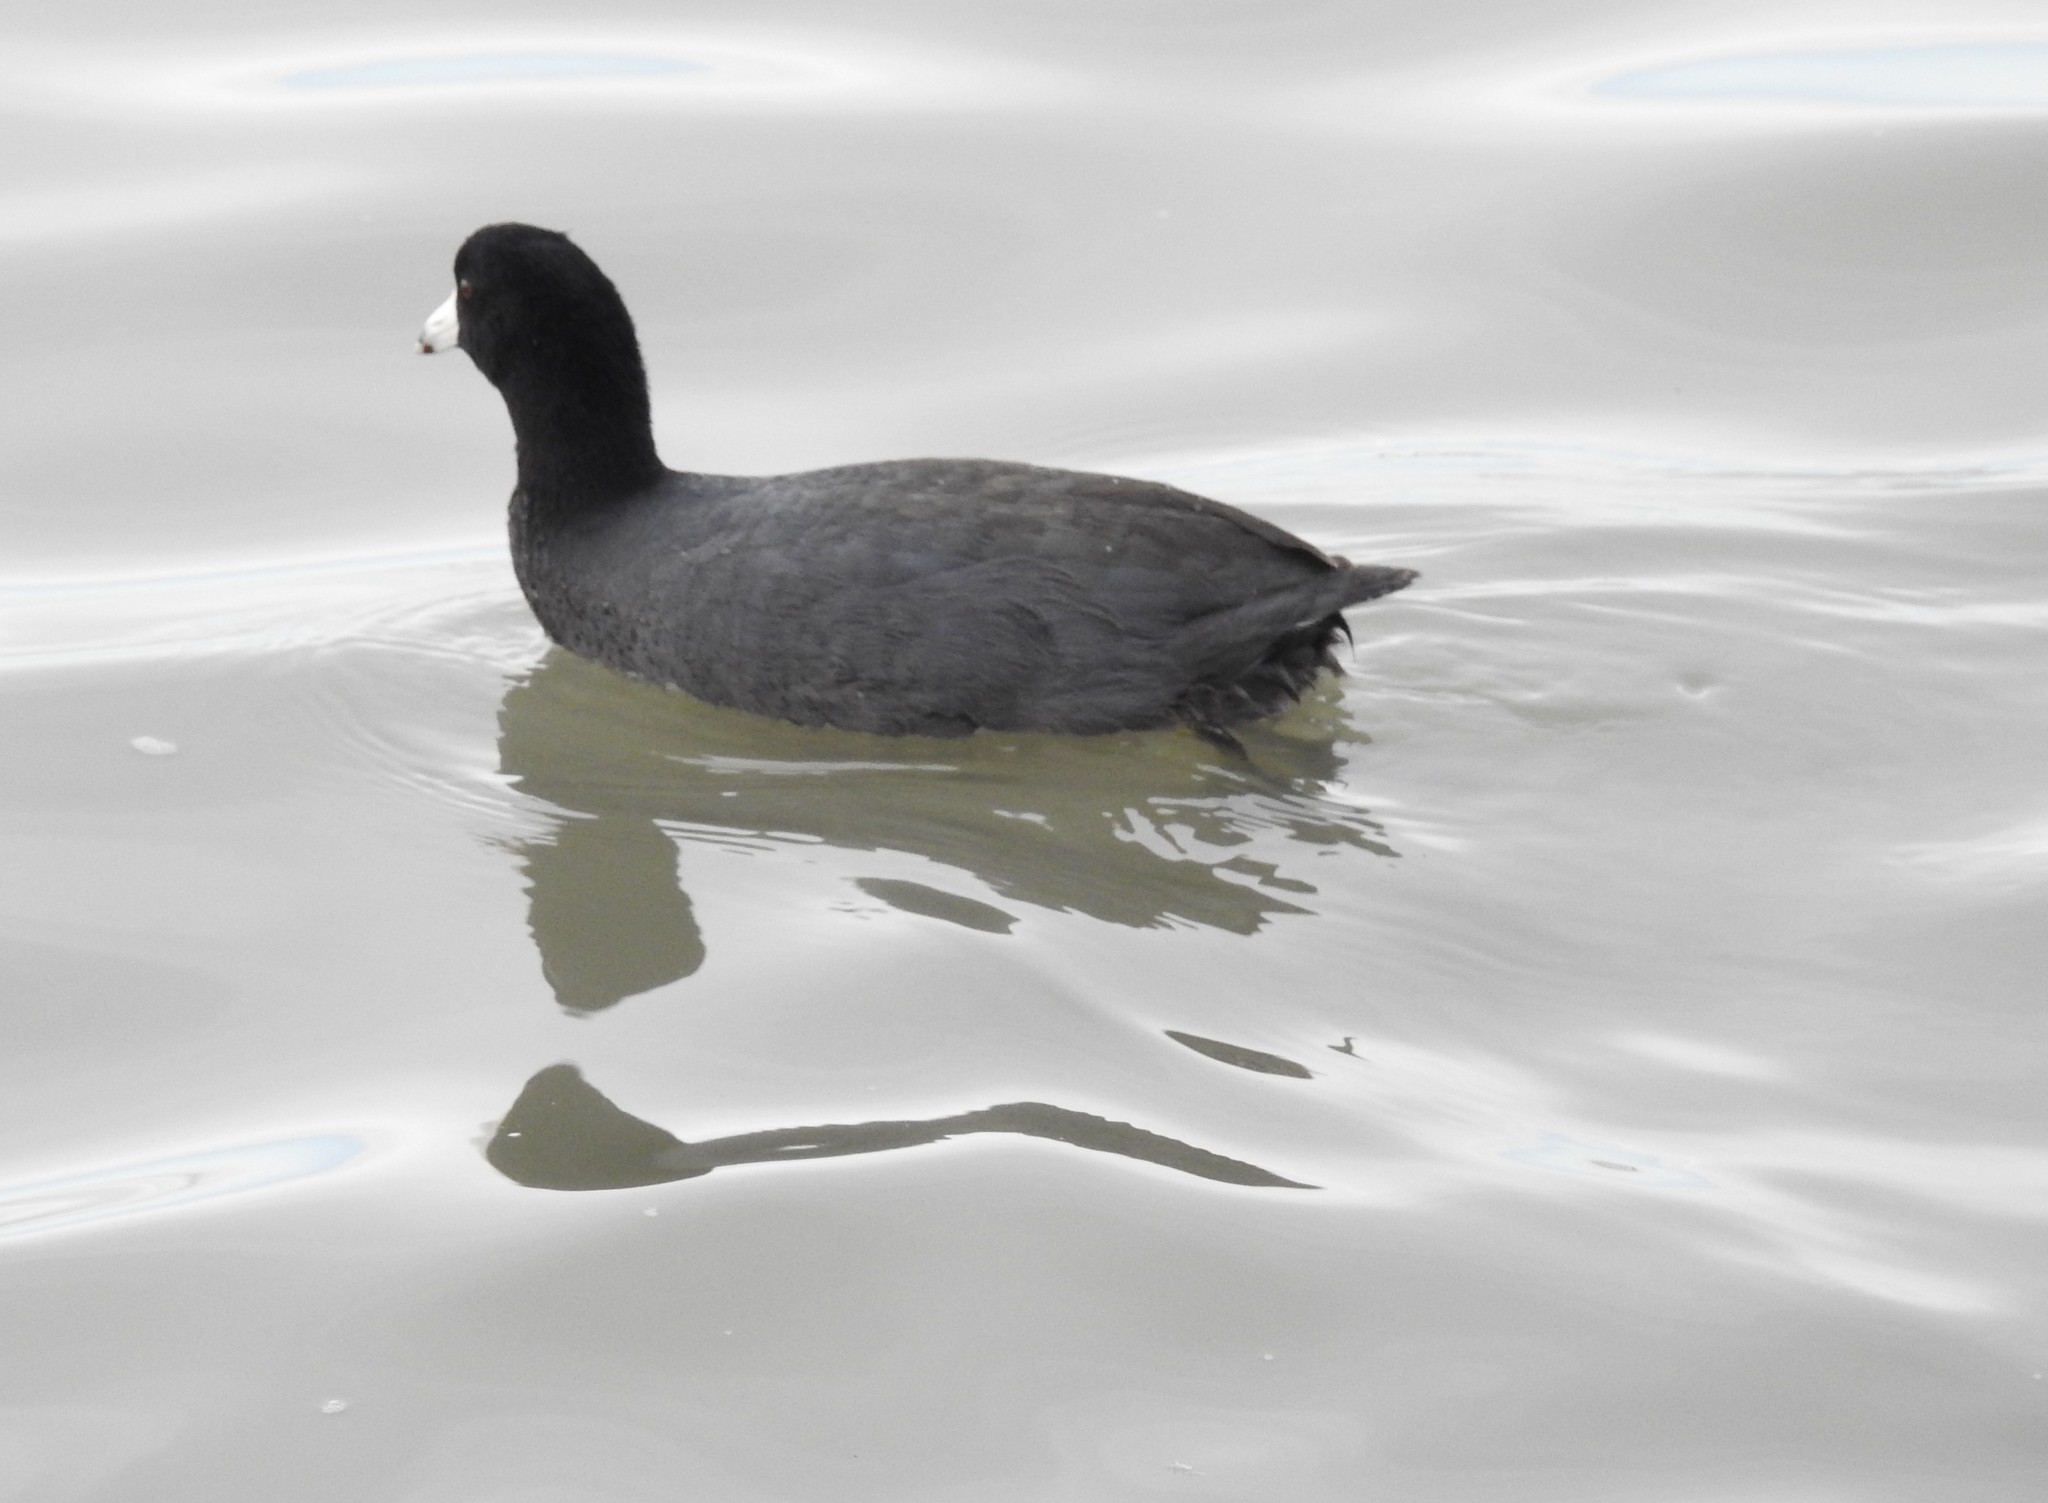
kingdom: Animalia
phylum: Chordata
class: Aves
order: Gruiformes
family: Rallidae
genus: Fulica
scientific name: Fulica americana
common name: American coot
